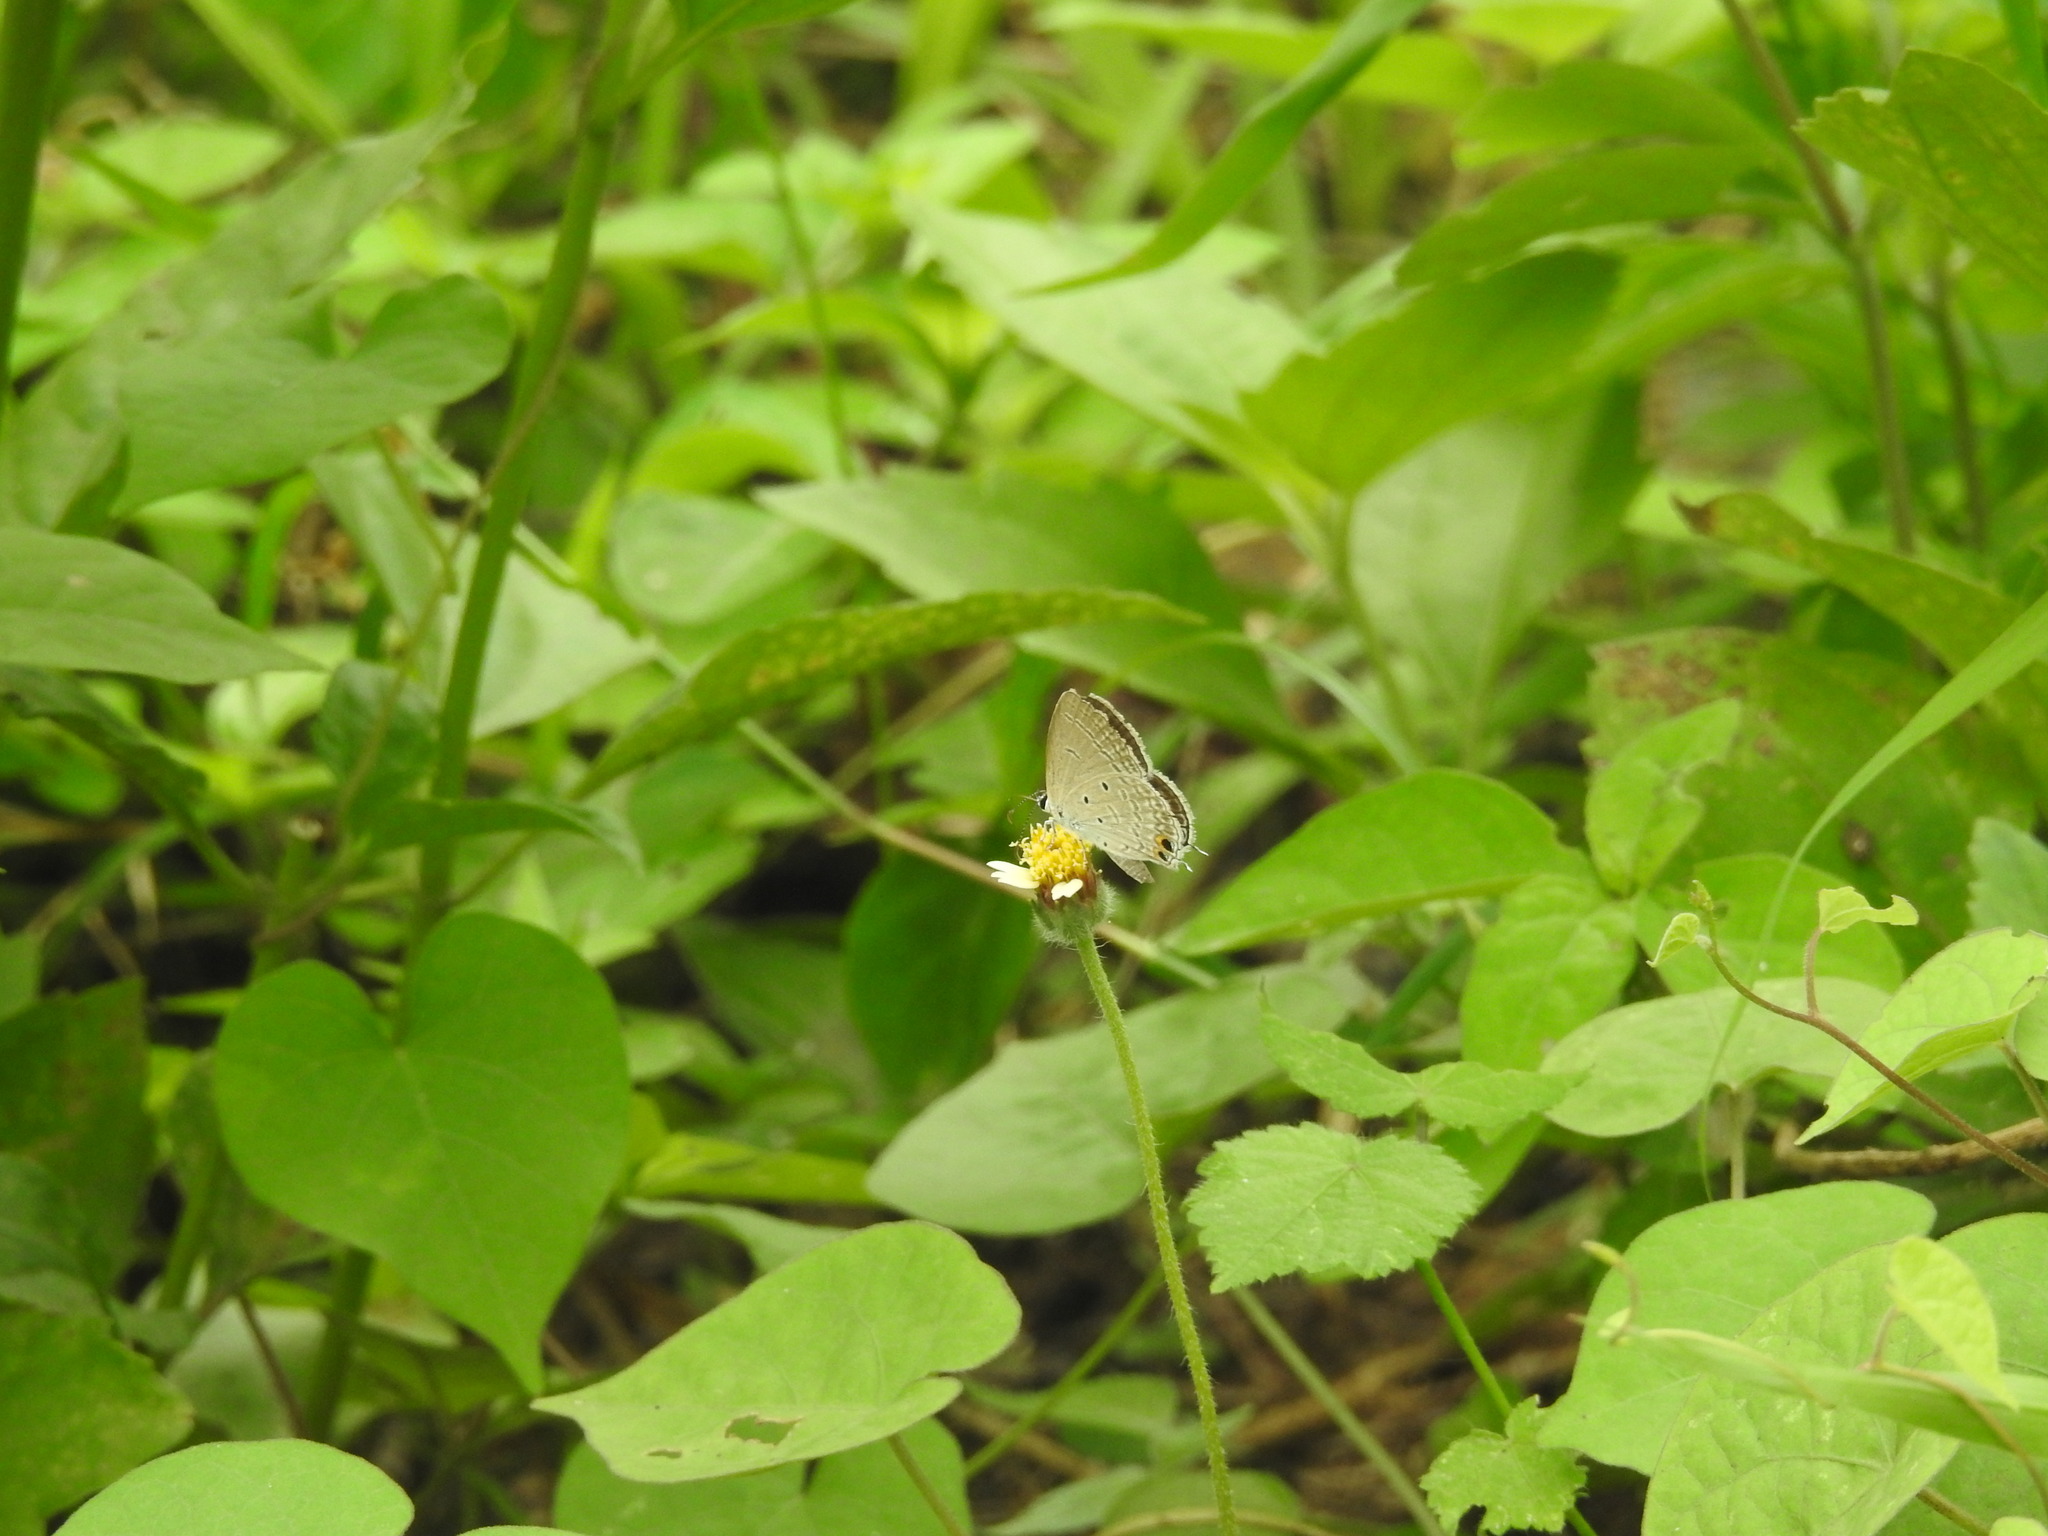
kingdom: Animalia
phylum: Arthropoda
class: Insecta
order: Lepidoptera
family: Lycaenidae
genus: Euchrysops
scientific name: Euchrysops cnejus
